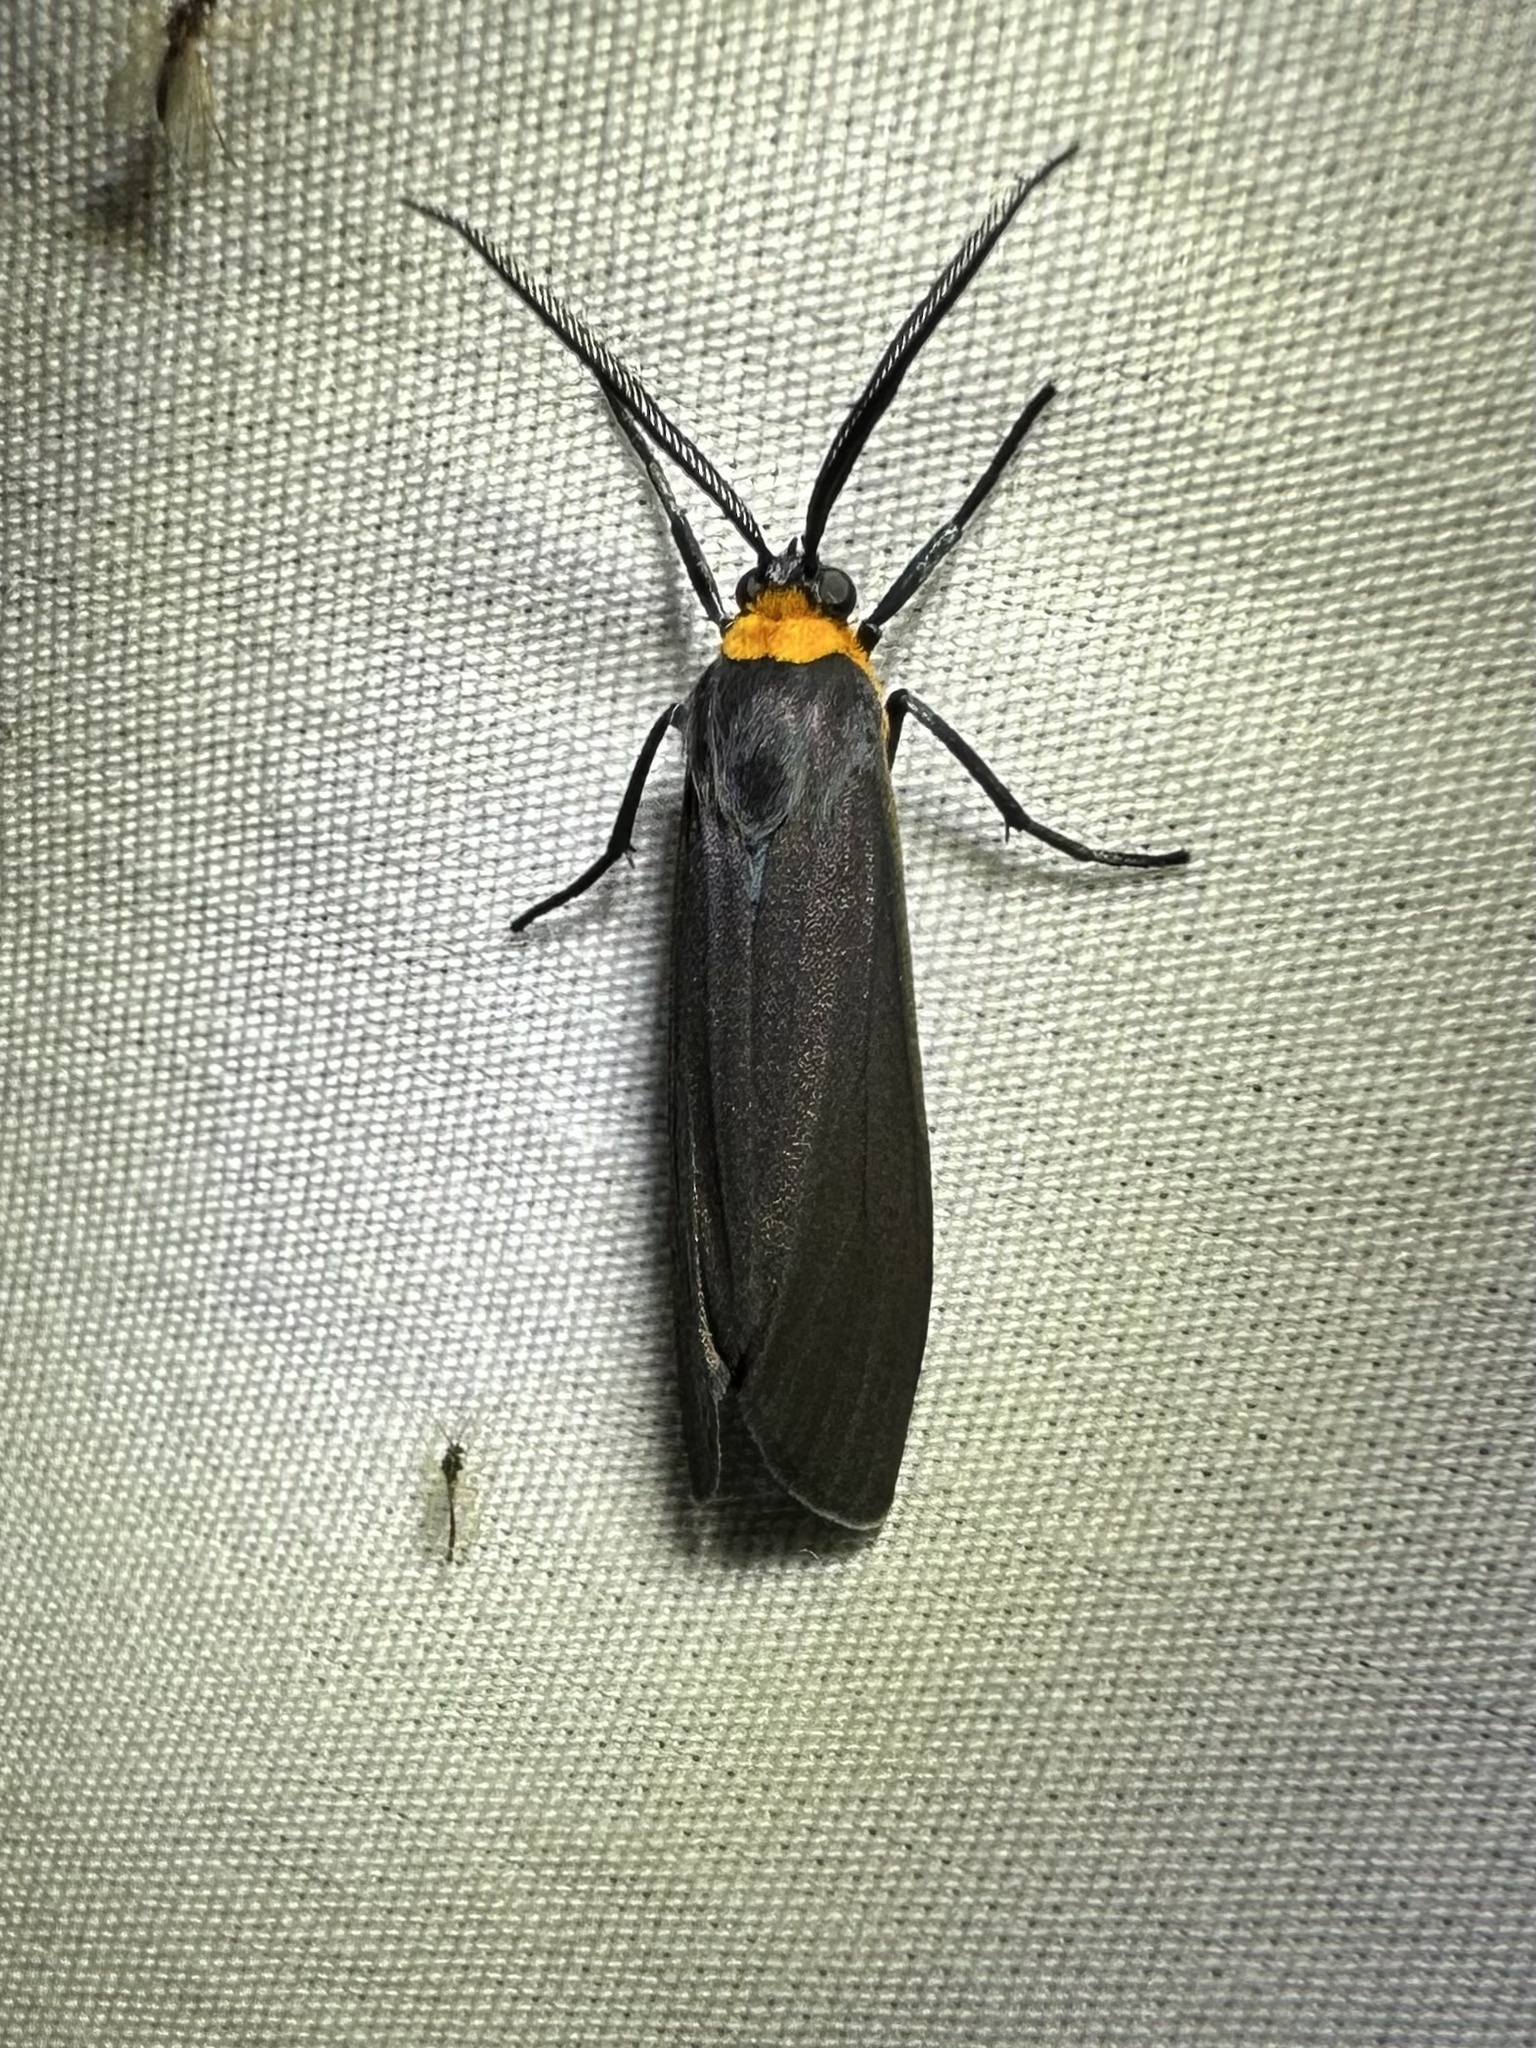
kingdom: Animalia
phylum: Arthropoda
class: Insecta
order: Lepidoptera
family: Erebidae
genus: Cisseps
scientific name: Cisseps fulvicollis
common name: Yellow-collared scape moth
